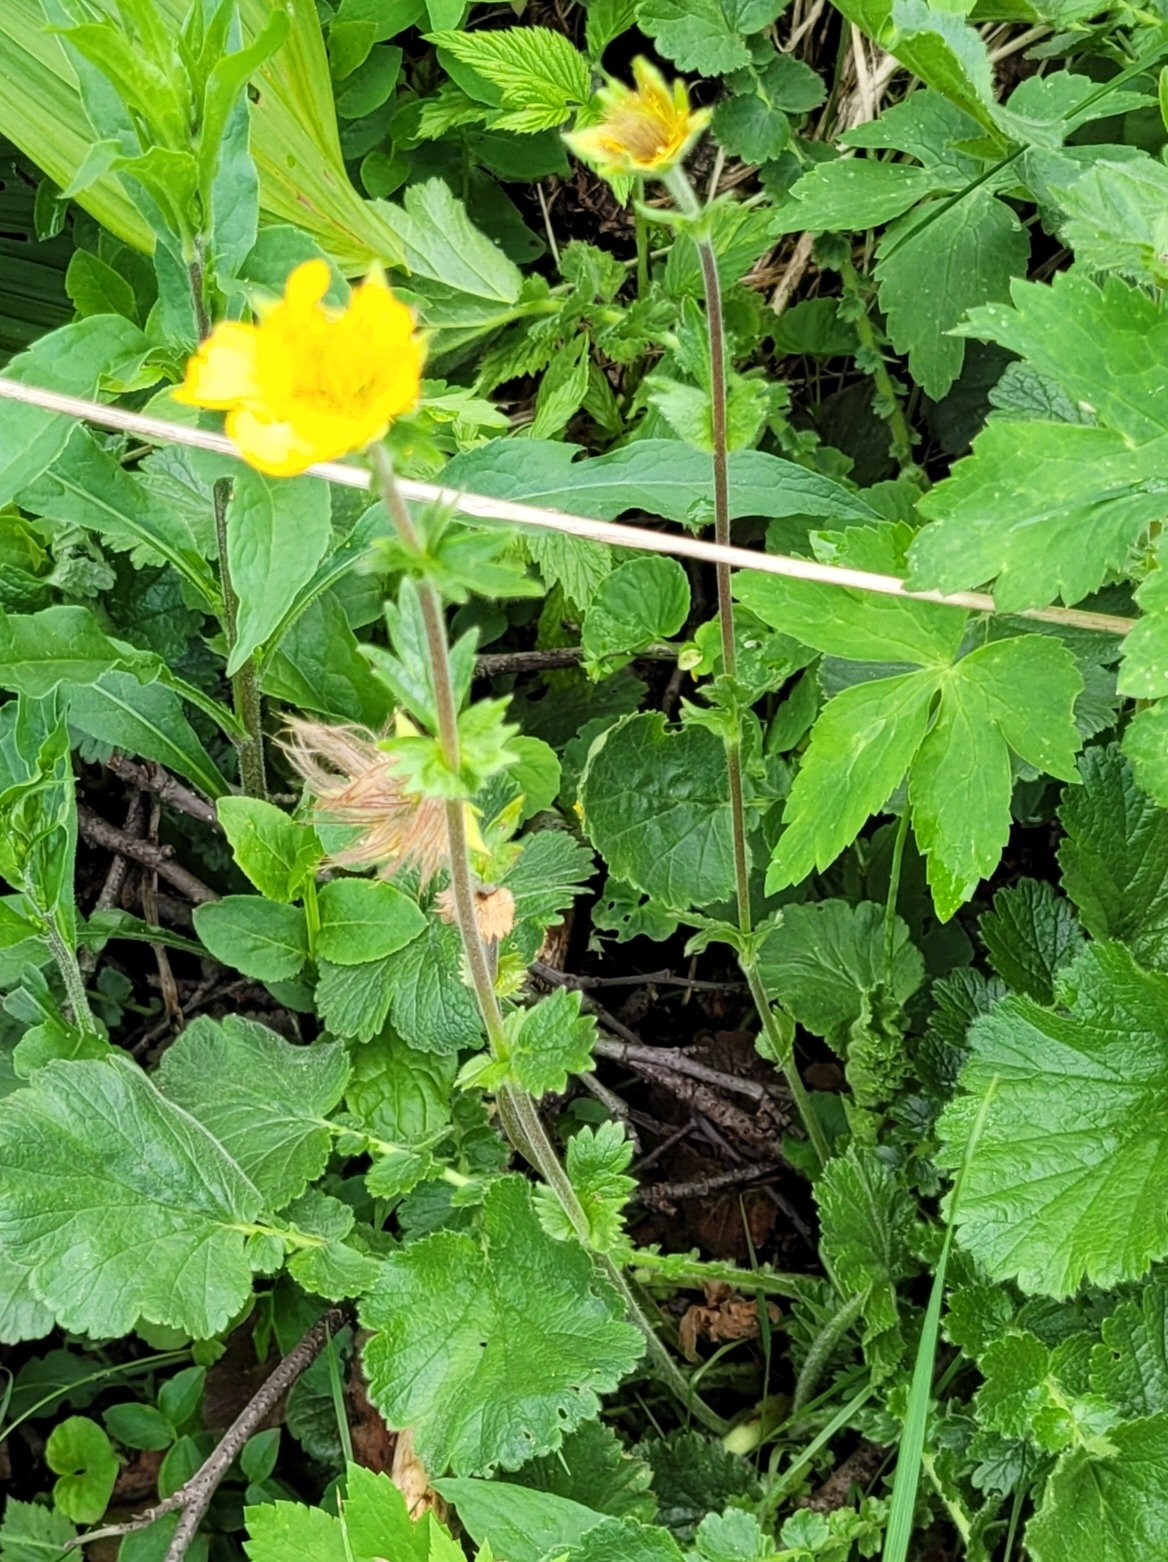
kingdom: Plantae
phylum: Tracheophyta
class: Magnoliopsida
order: Rosales
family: Rosaceae
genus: Geum
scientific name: Geum montanum
